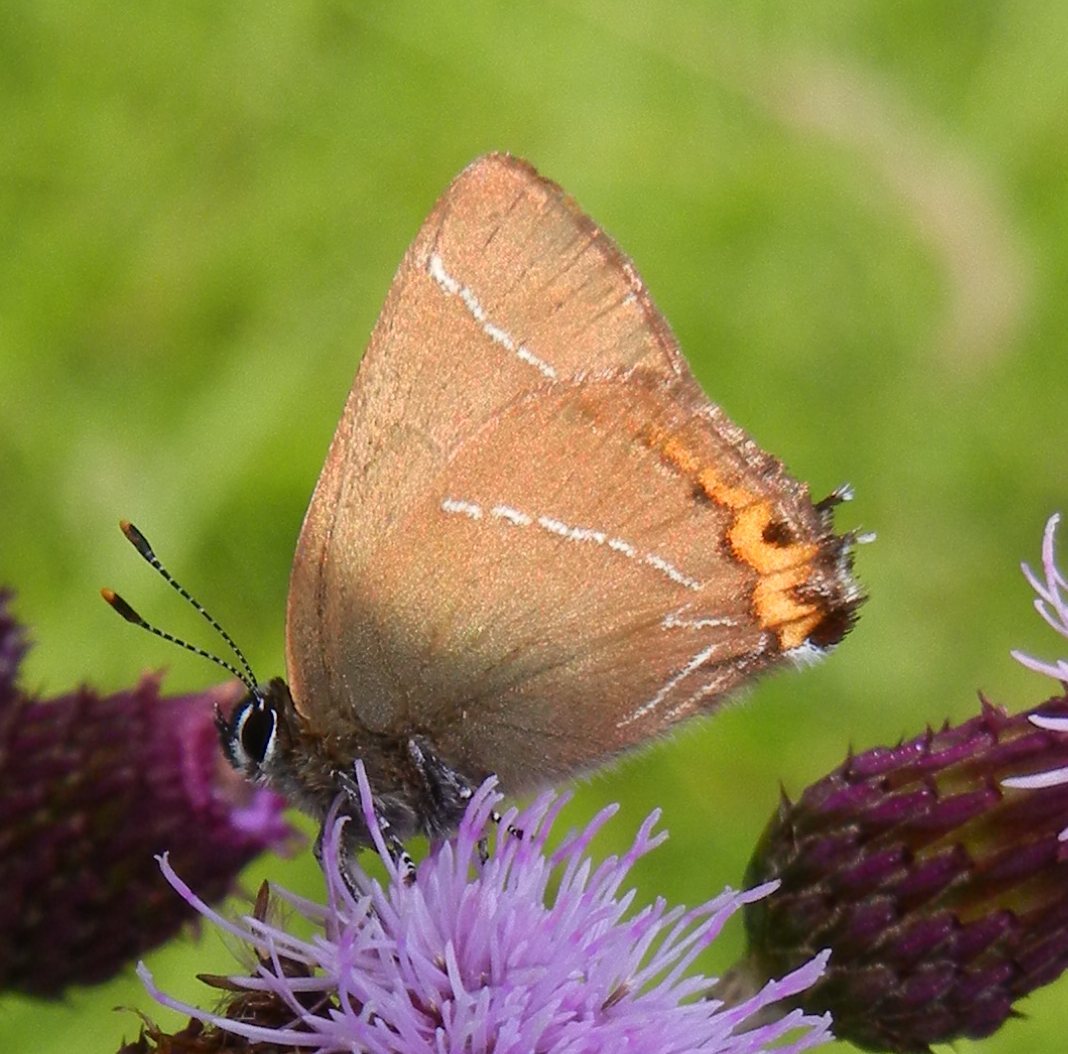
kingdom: Animalia
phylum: Arthropoda
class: Insecta
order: Lepidoptera
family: Lycaenidae
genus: Satyrium
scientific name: Satyrium w-album
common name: White-letter hairstreak
